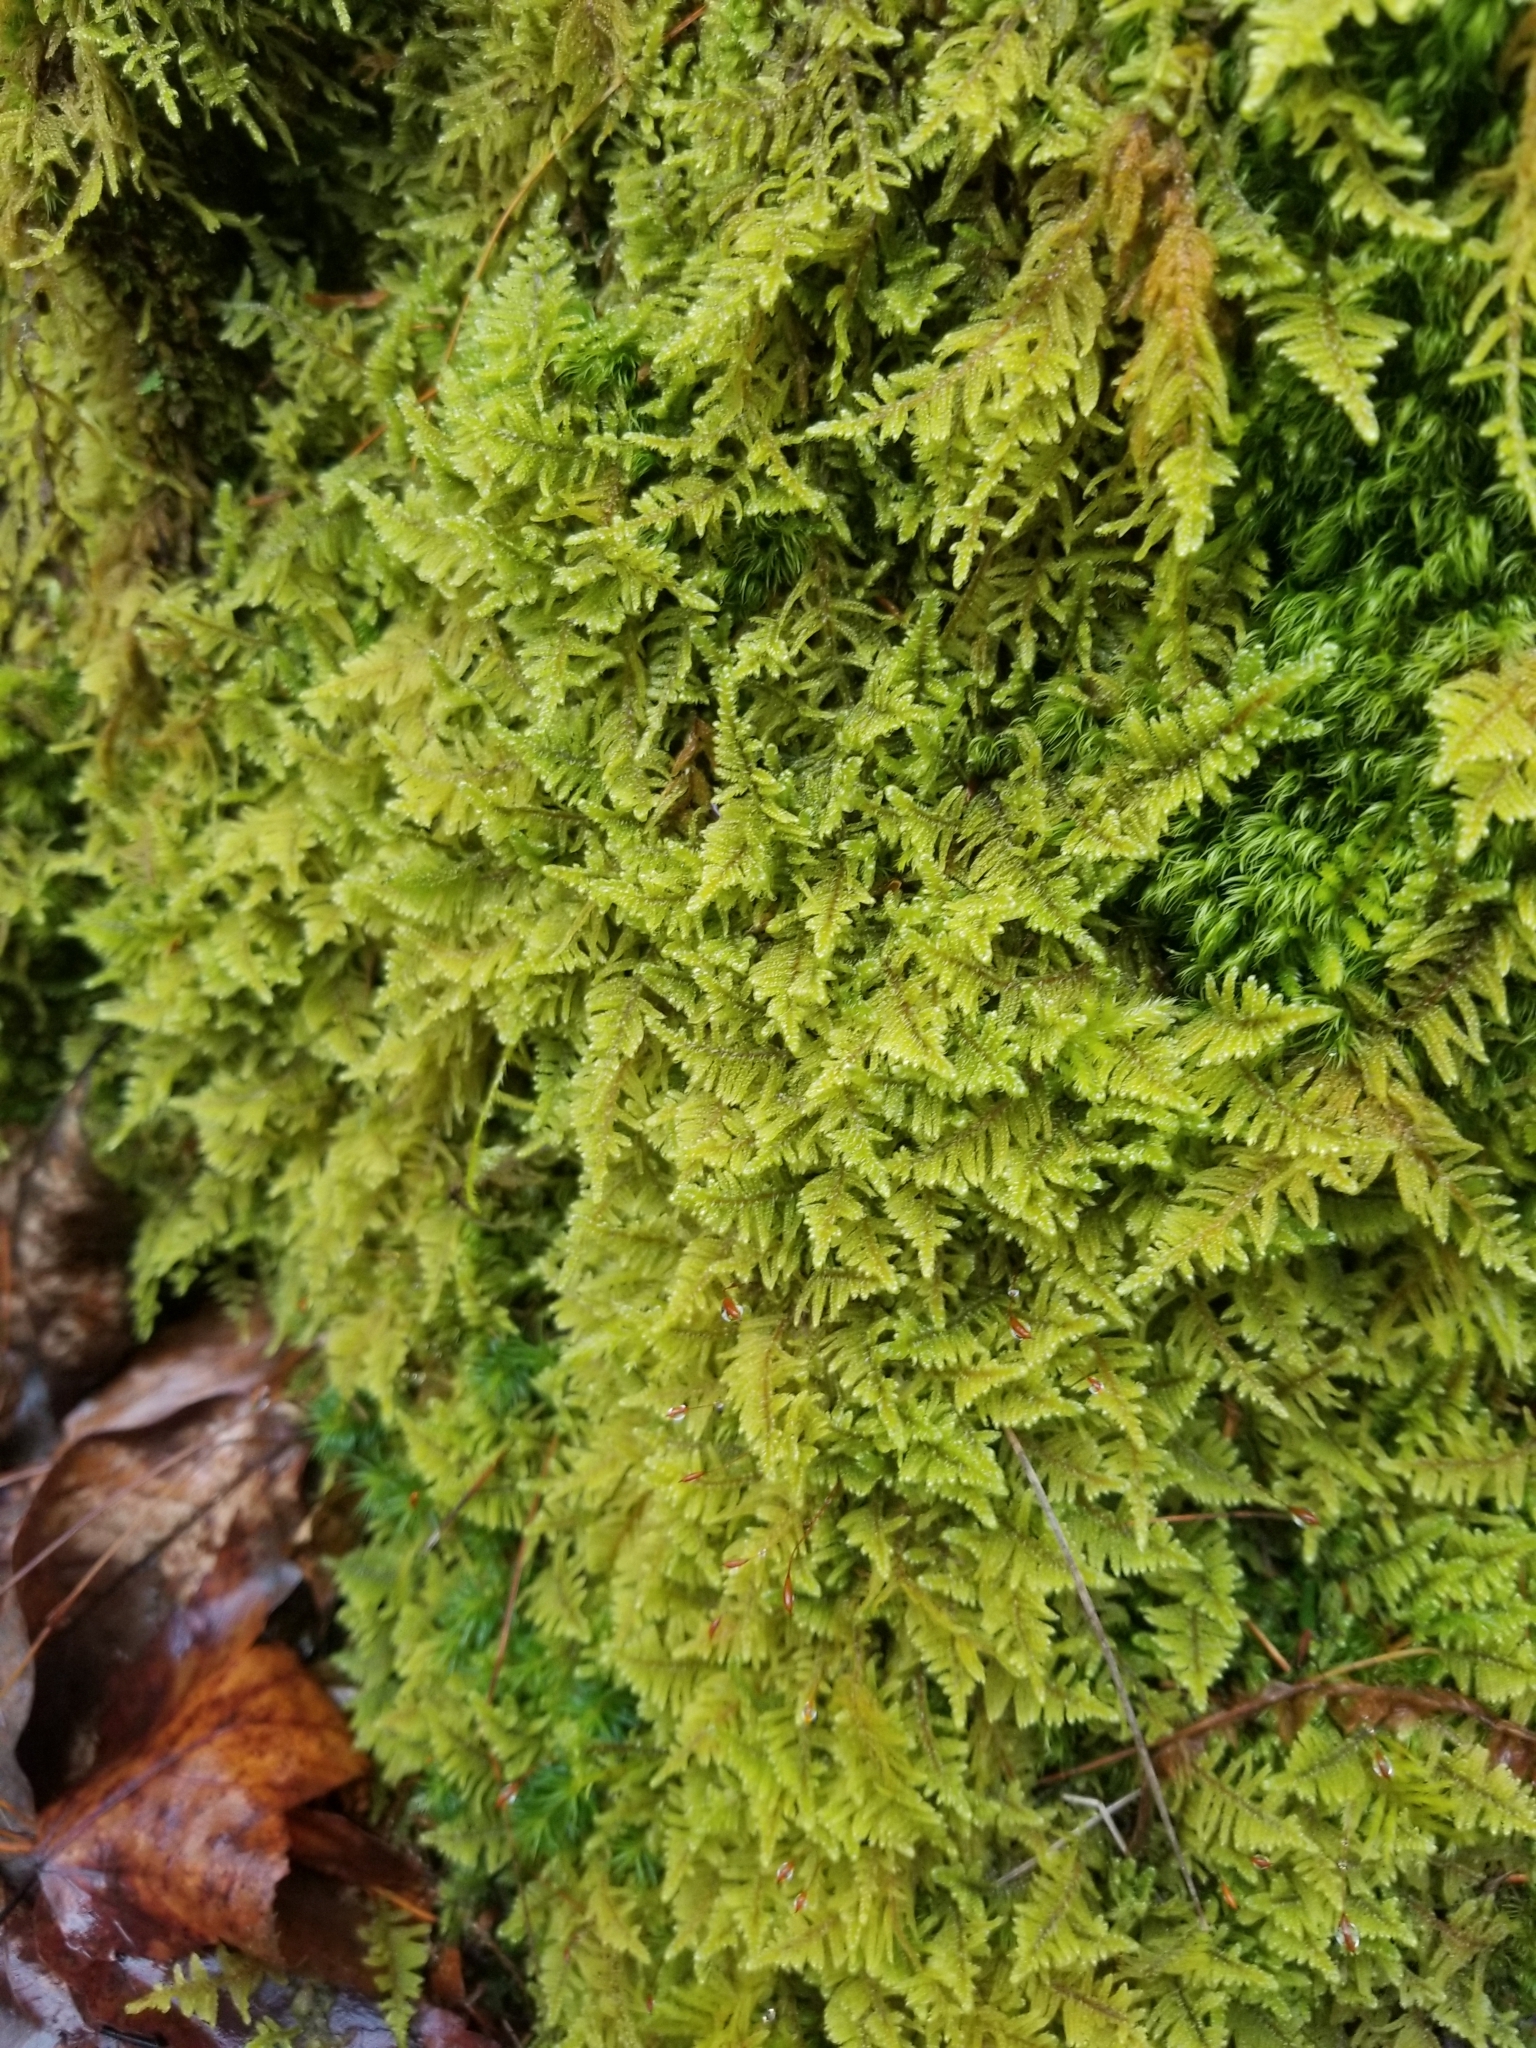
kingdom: Plantae
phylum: Bryophyta
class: Bryopsida
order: Hypnales
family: Callicladiaceae
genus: Callicladium
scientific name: Callicladium imponens
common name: Brocade moss
